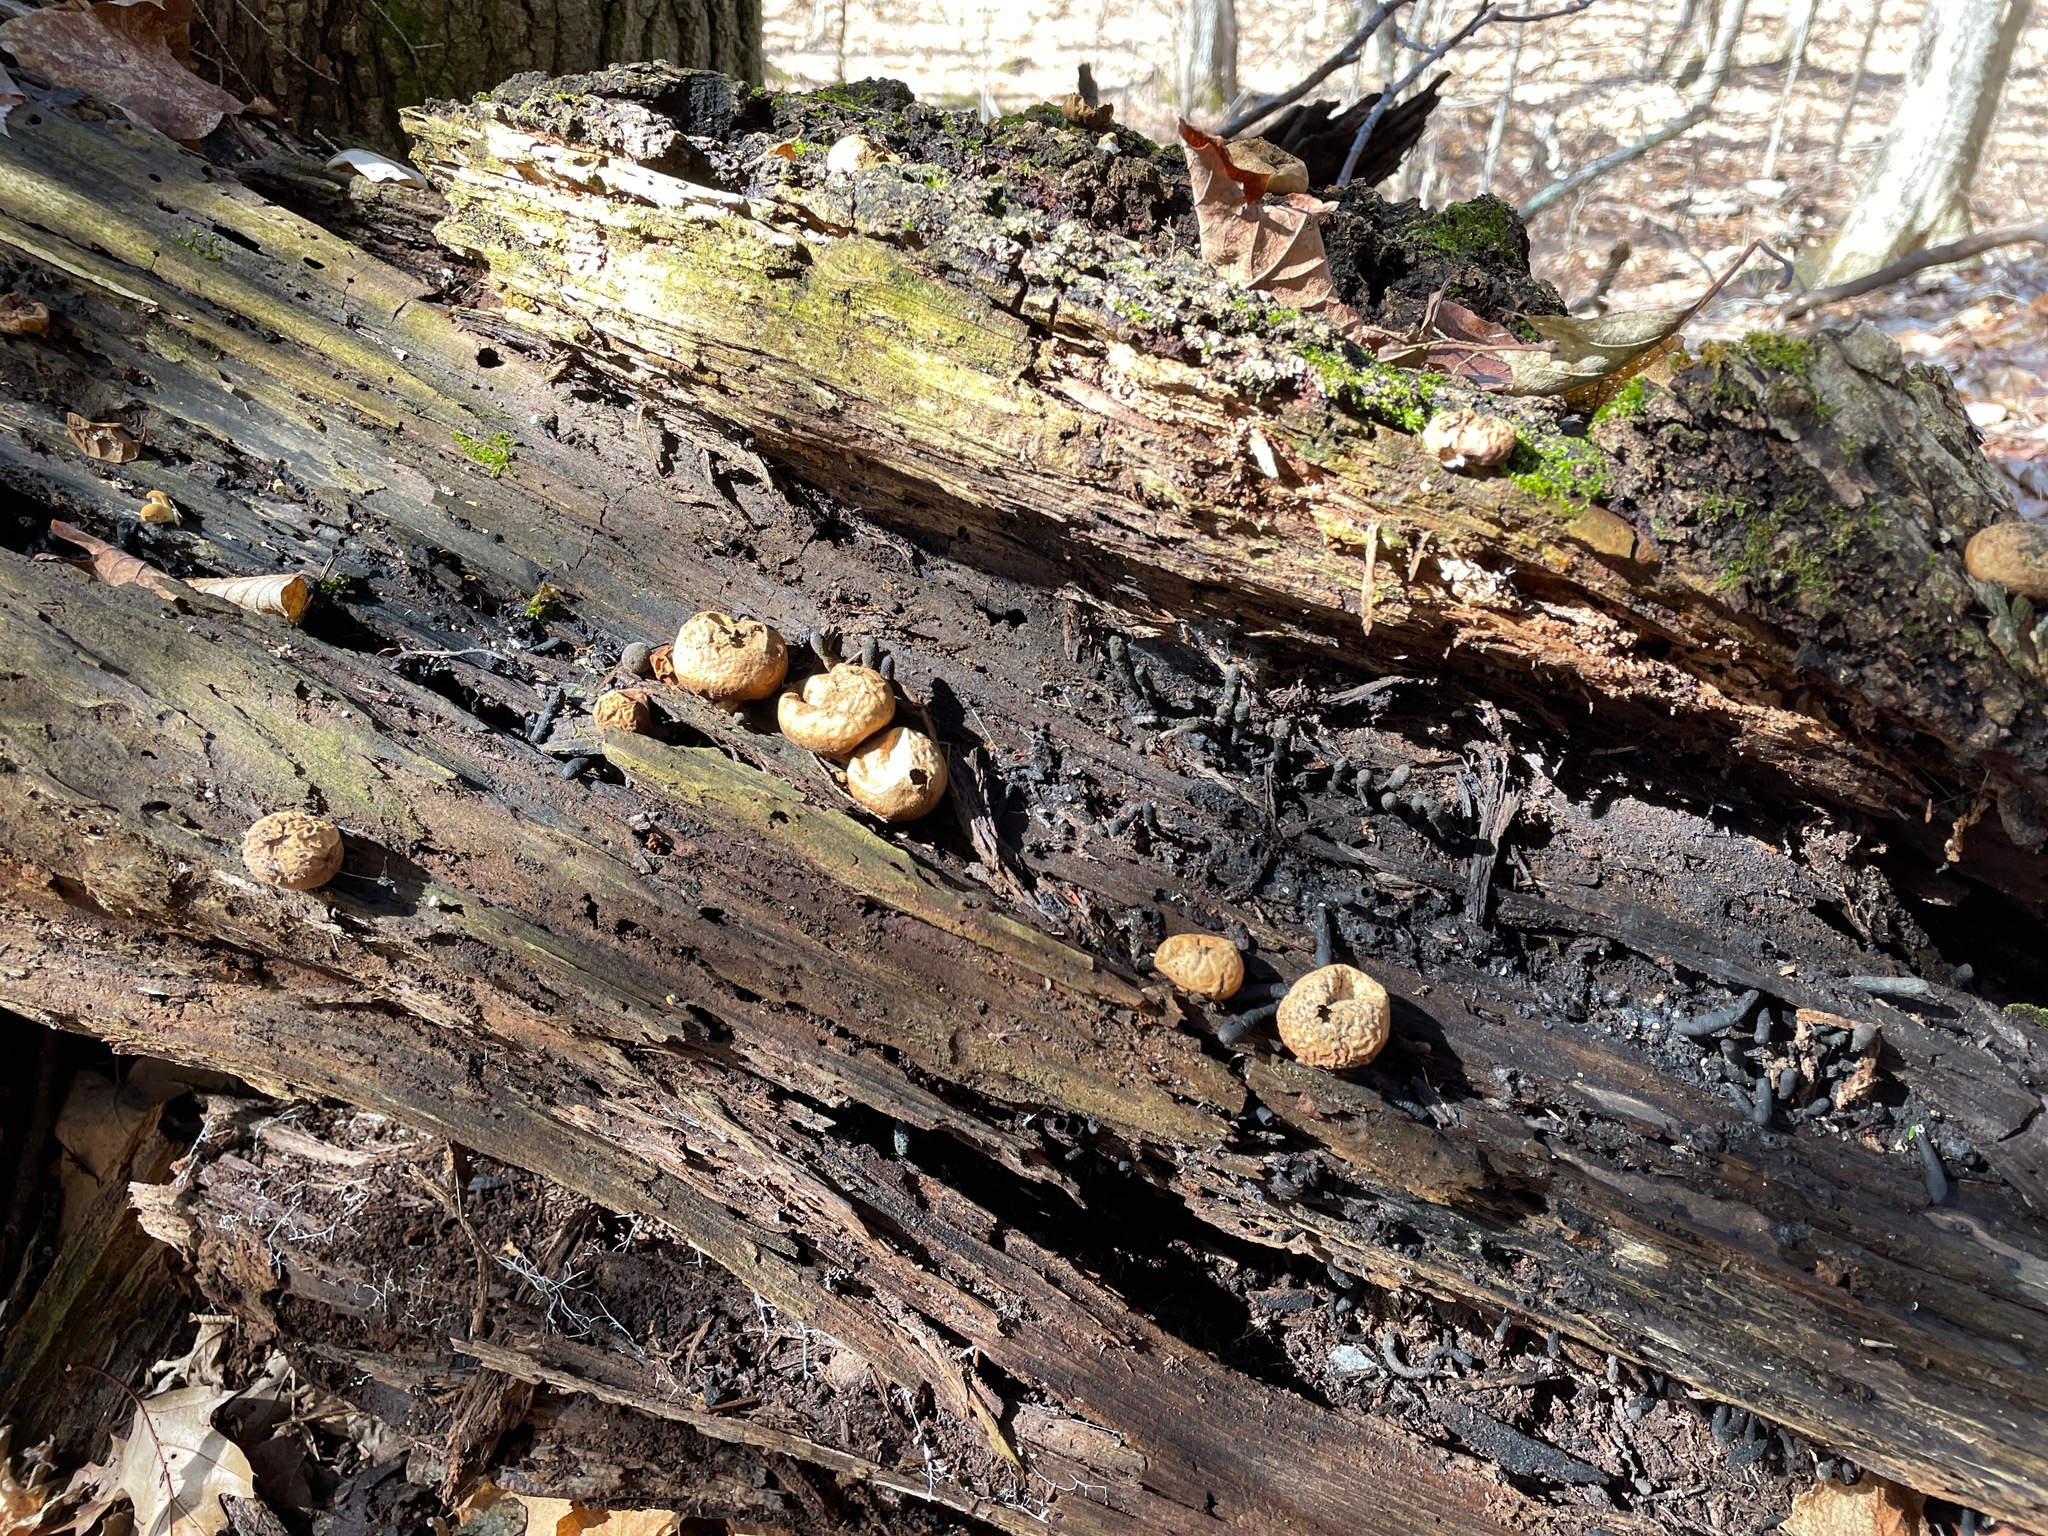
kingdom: Fungi
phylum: Basidiomycota
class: Agaricomycetes
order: Agaricales
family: Lycoperdaceae
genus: Apioperdon
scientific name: Apioperdon pyriforme
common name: Pear-shaped puffball
